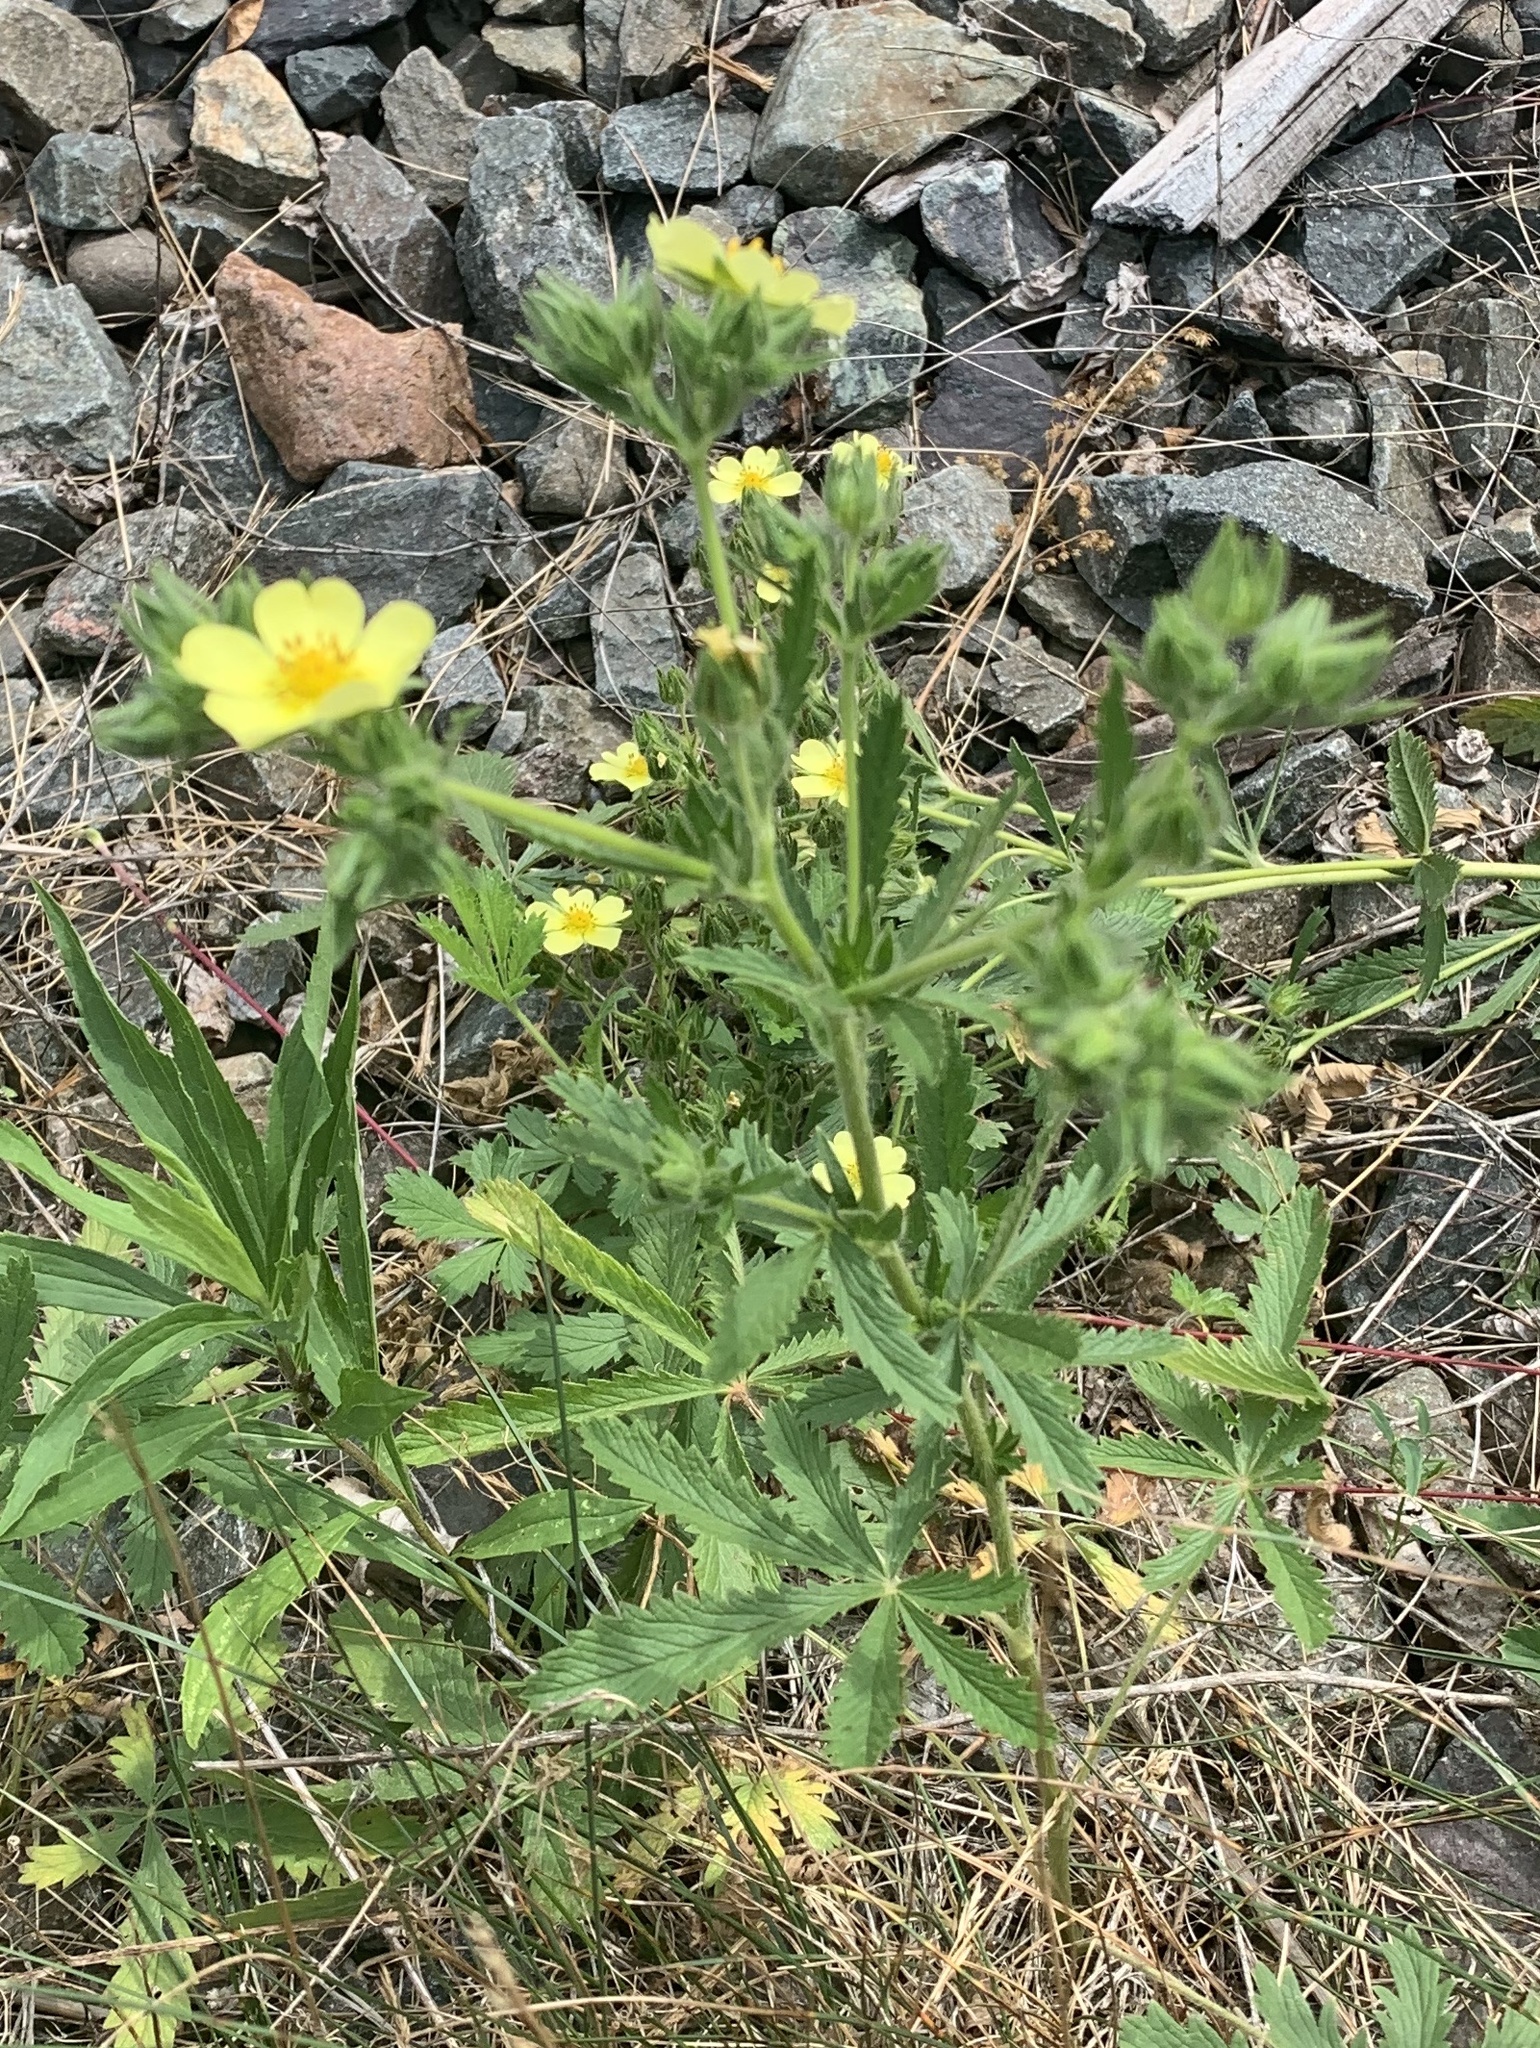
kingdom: Plantae
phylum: Tracheophyta
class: Magnoliopsida
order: Rosales
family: Rosaceae
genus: Potentilla
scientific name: Potentilla recta
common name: Sulphur cinquefoil
